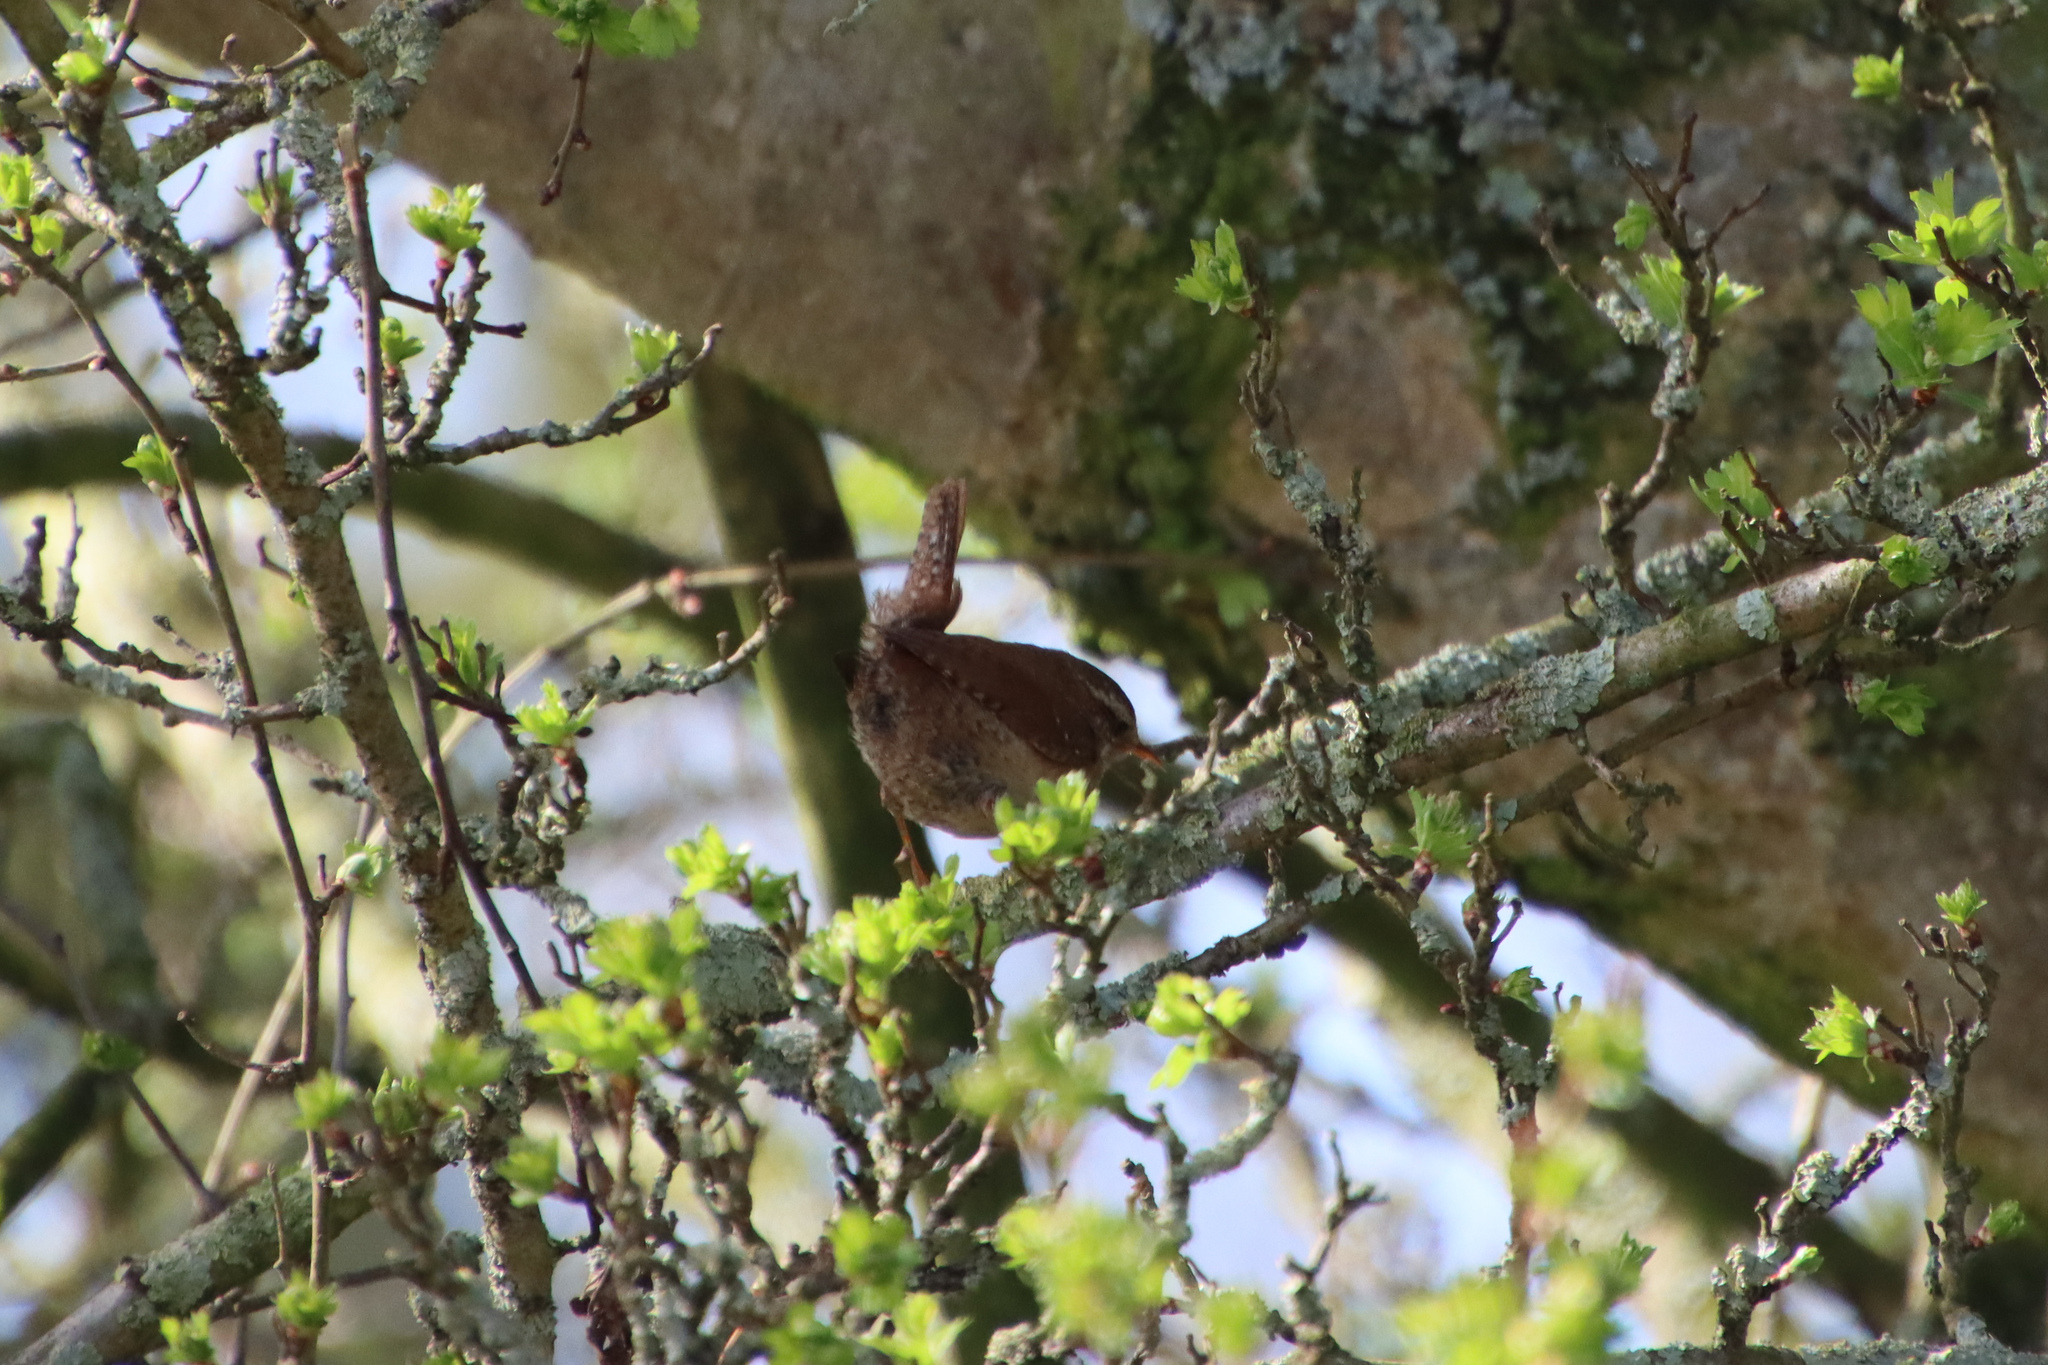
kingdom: Animalia
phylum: Chordata
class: Aves
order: Passeriformes
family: Troglodytidae
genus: Troglodytes
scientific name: Troglodytes troglodytes
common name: Eurasian wren
